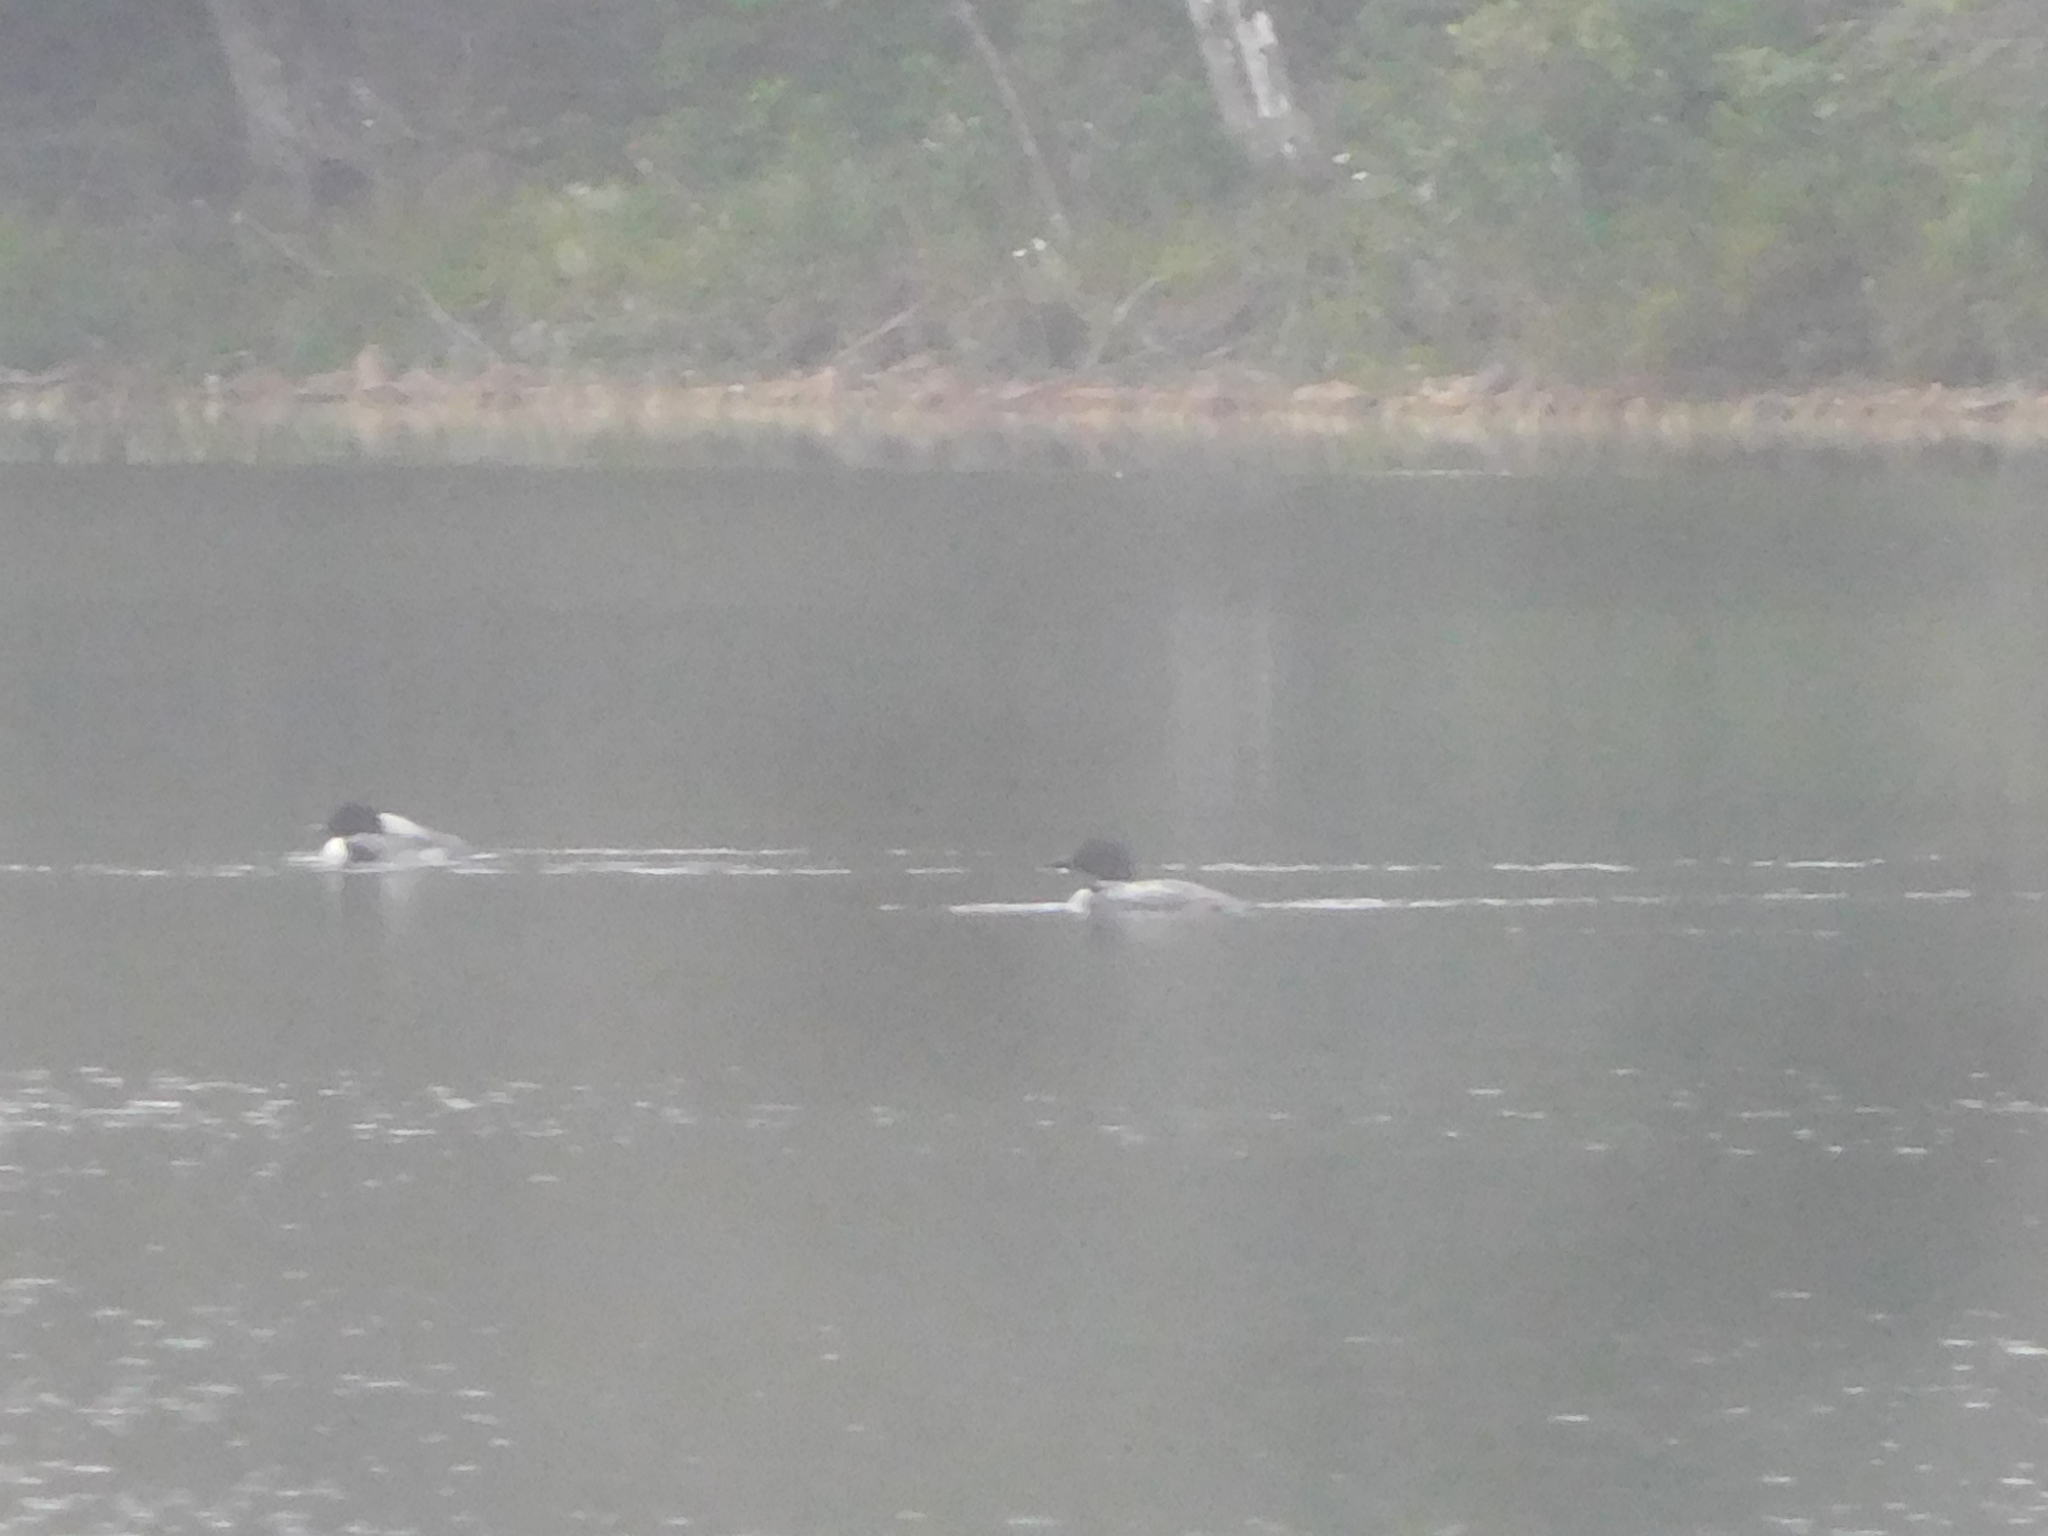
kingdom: Animalia
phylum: Chordata
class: Aves
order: Gaviiformes
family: Gaviidae
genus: Gavia
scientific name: Gavia immer
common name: Common loon
